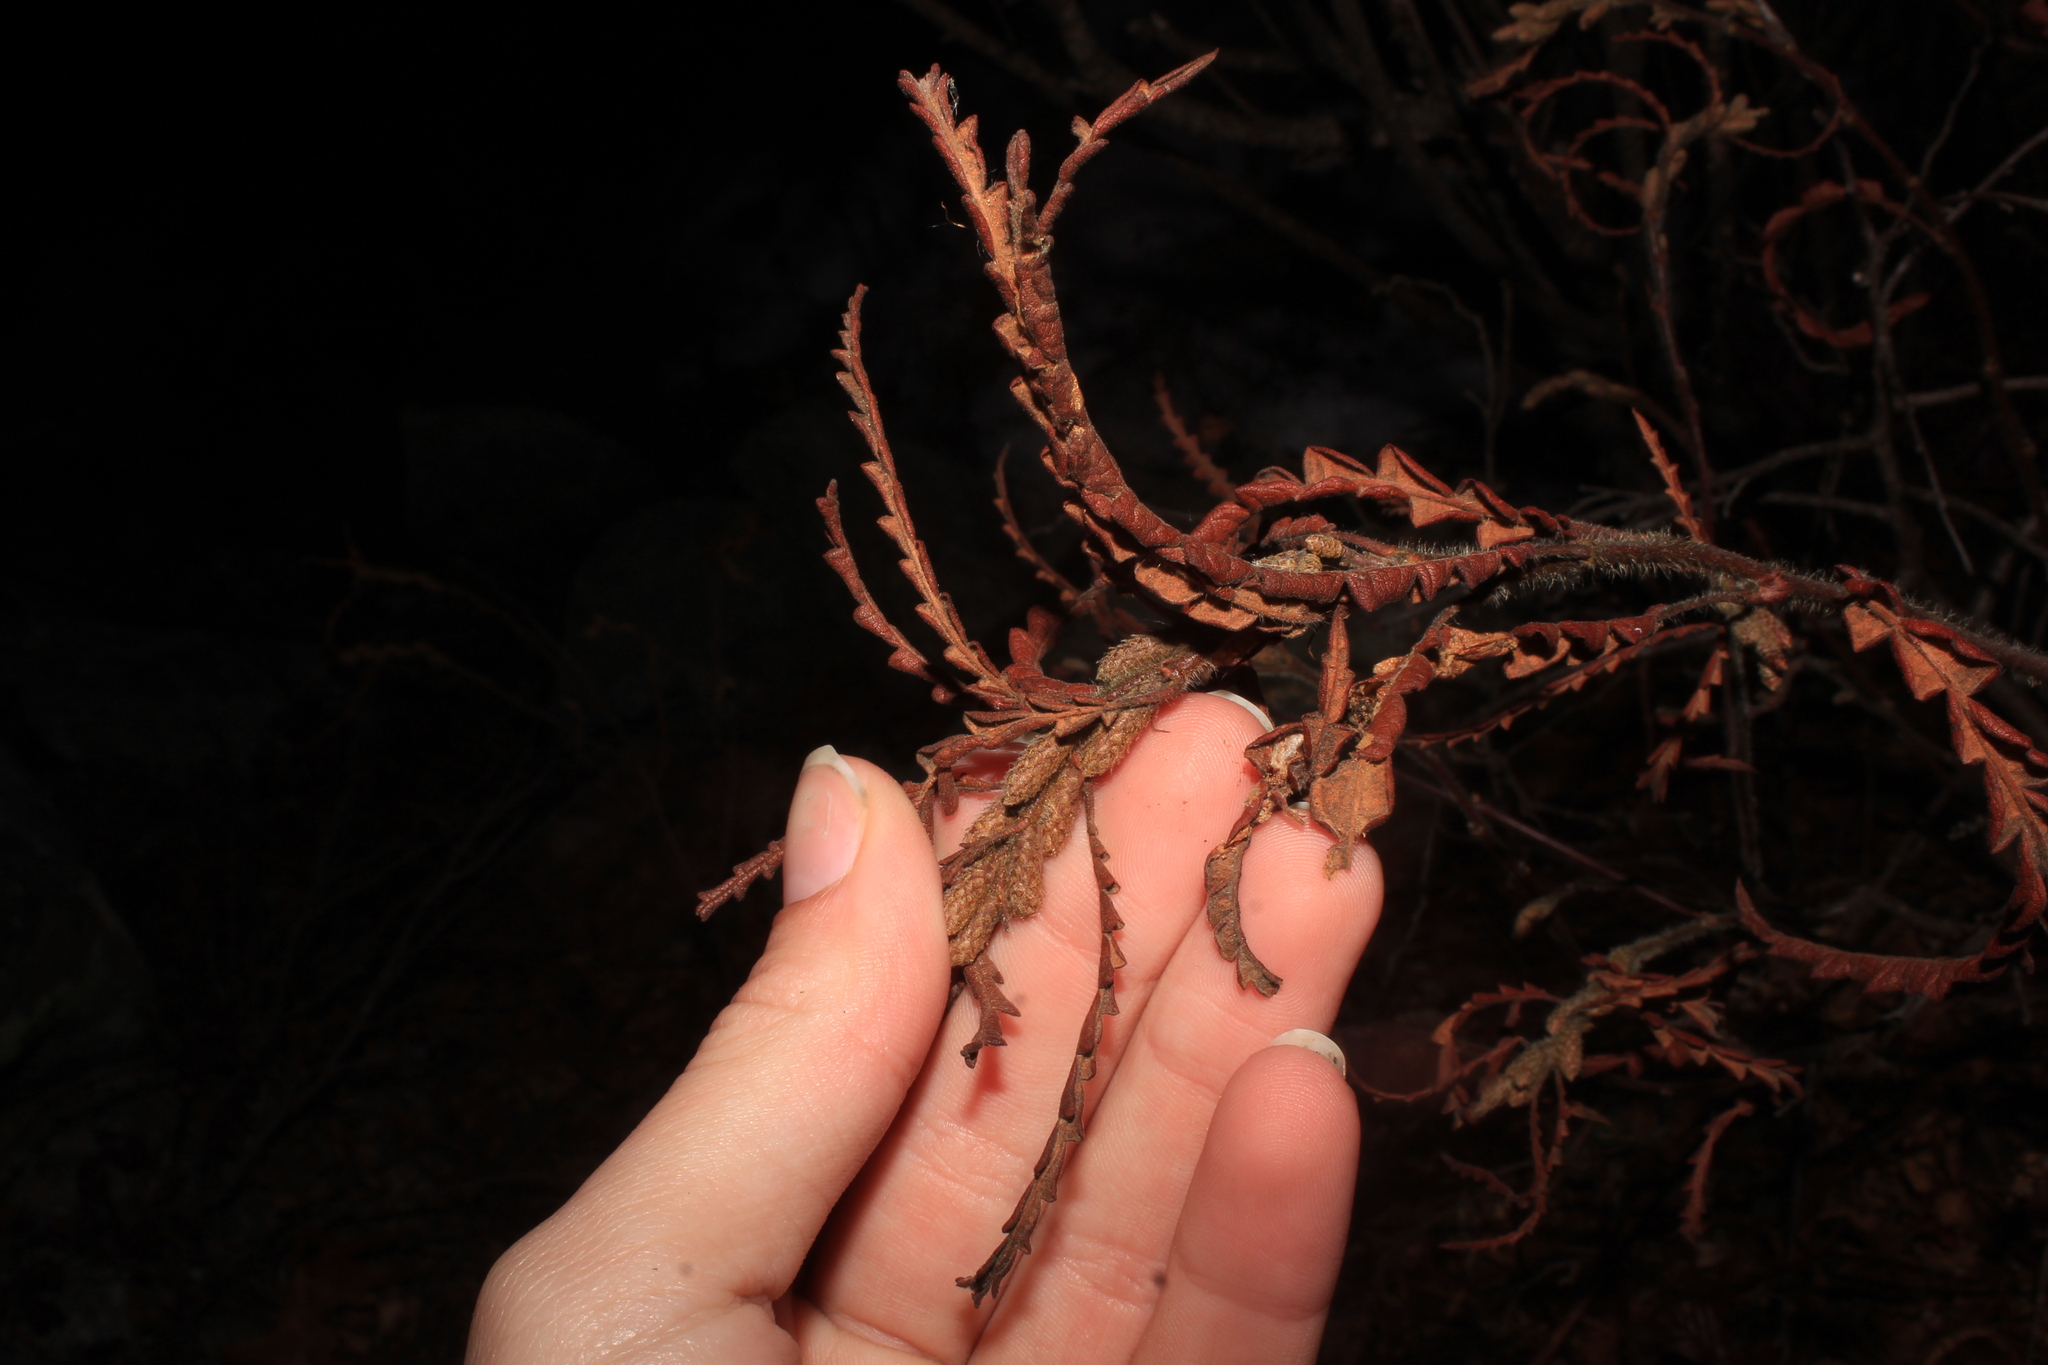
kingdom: Plantae
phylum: Tracheophyta
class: Magnoliopsida
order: Fagales
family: Myricaceae
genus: Comptonia
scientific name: Comptonia peregrina
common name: Sweet-fern
